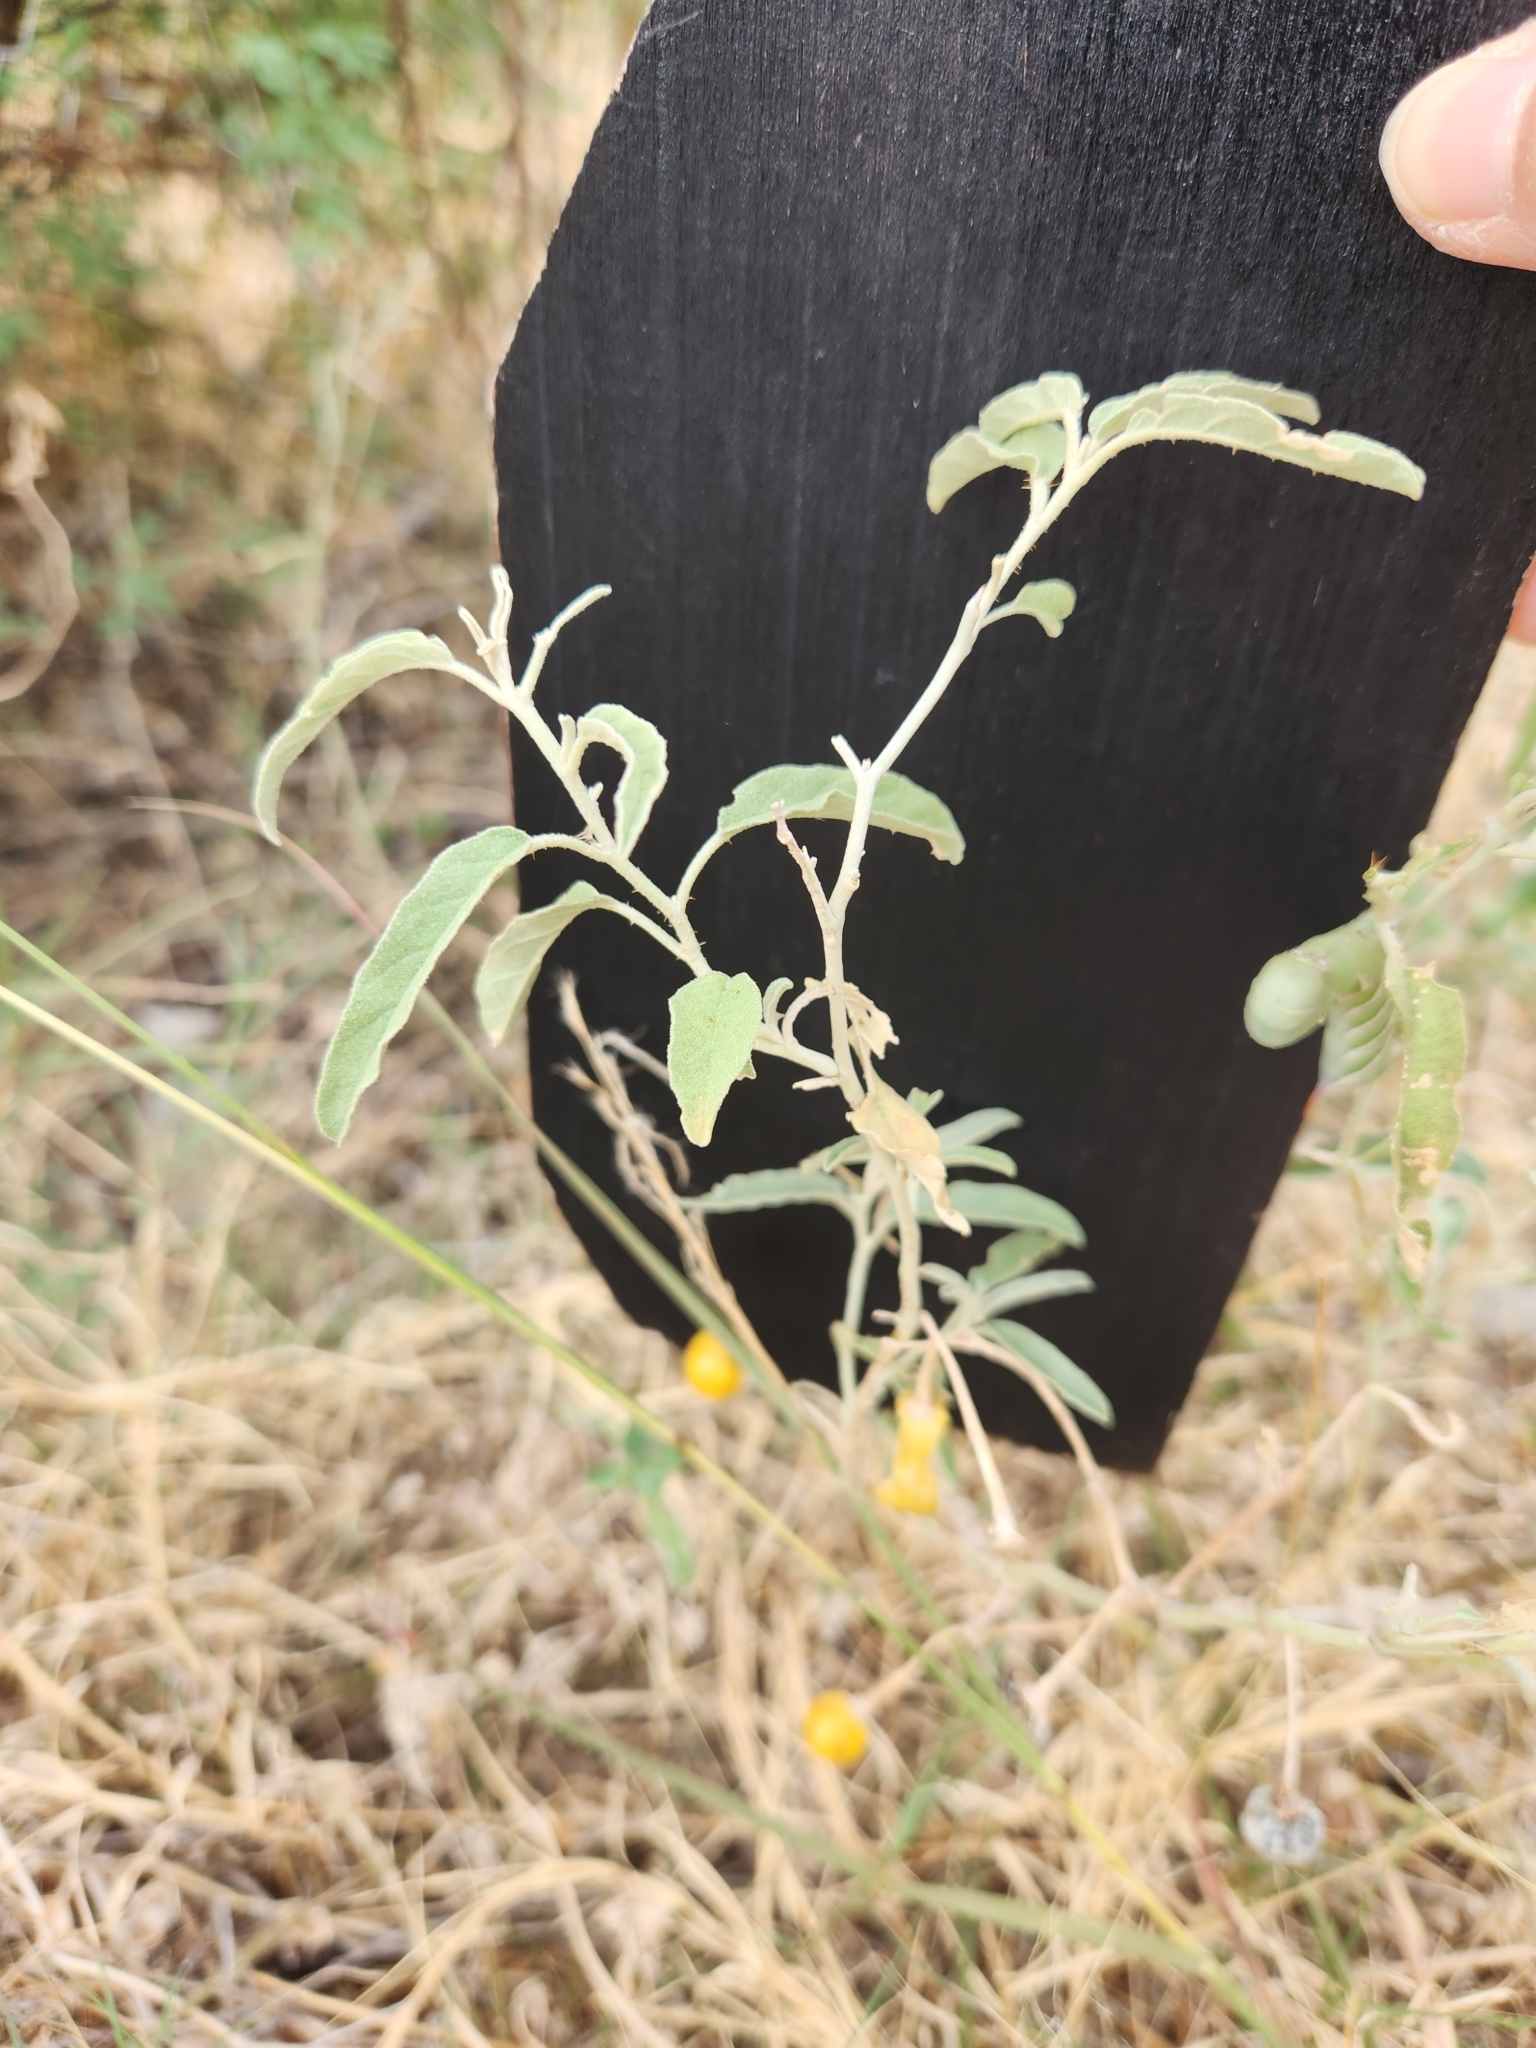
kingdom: Plantae
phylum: Tracheophyta
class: Magnoliopsida
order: Solanales
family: Solanaceae
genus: Solanum
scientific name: Solanum elaeagnifolium
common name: Silverleaf nightshade
